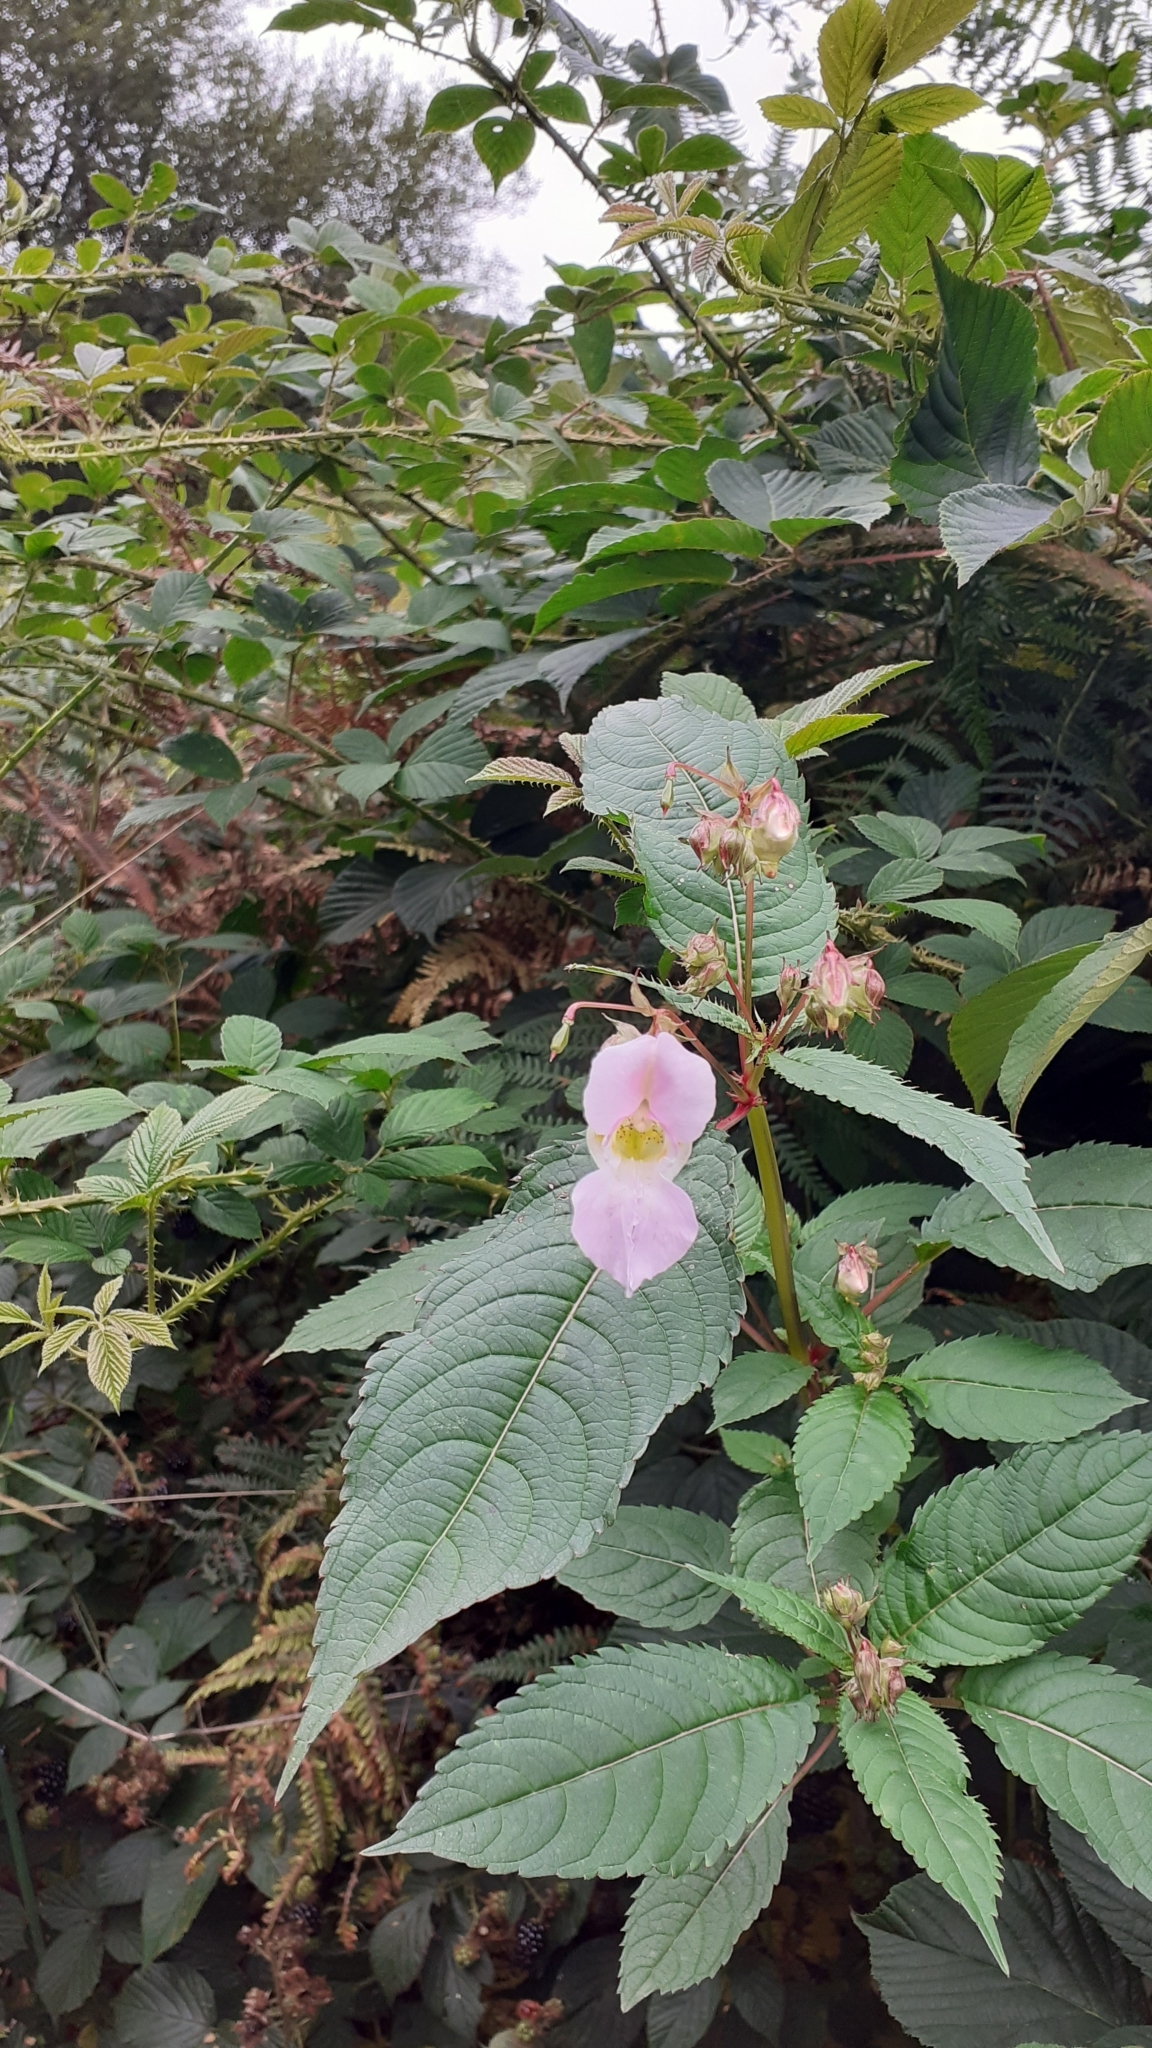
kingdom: Plantae
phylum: Tracheophyta
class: Magnoliopsida
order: Ericales
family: Balsaminaceae
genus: Impatiens
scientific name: Impatiens glandulifera
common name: Himalayan balsam
